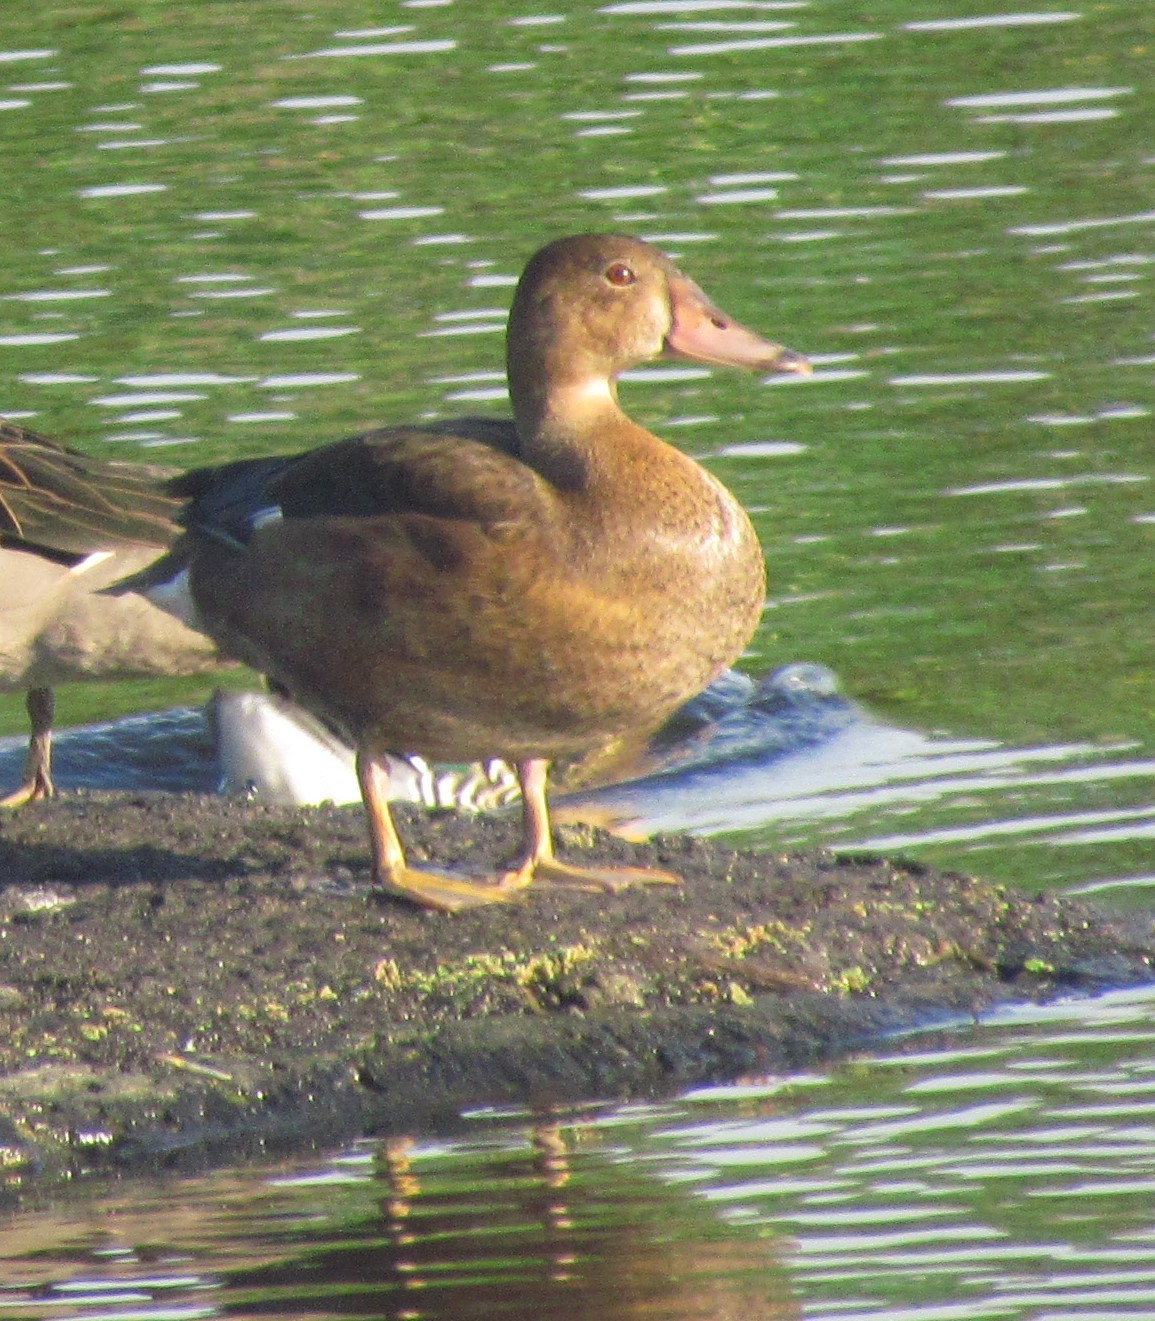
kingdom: Animalia
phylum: Chordata
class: Aves
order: Anseriformes
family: Anatidae
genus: Amazonetta
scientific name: Amazonetta brasiliensis
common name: Brazilian teal
